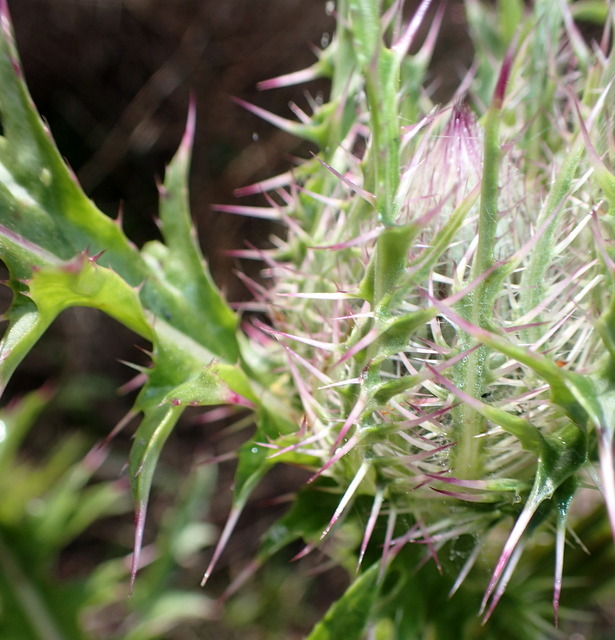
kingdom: Plantae
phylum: Tracheophyta
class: Magnoliopsida
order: Asterales
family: Asteraceae
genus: Cirsium
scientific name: Cirsium horridulum
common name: Bristly thistle
